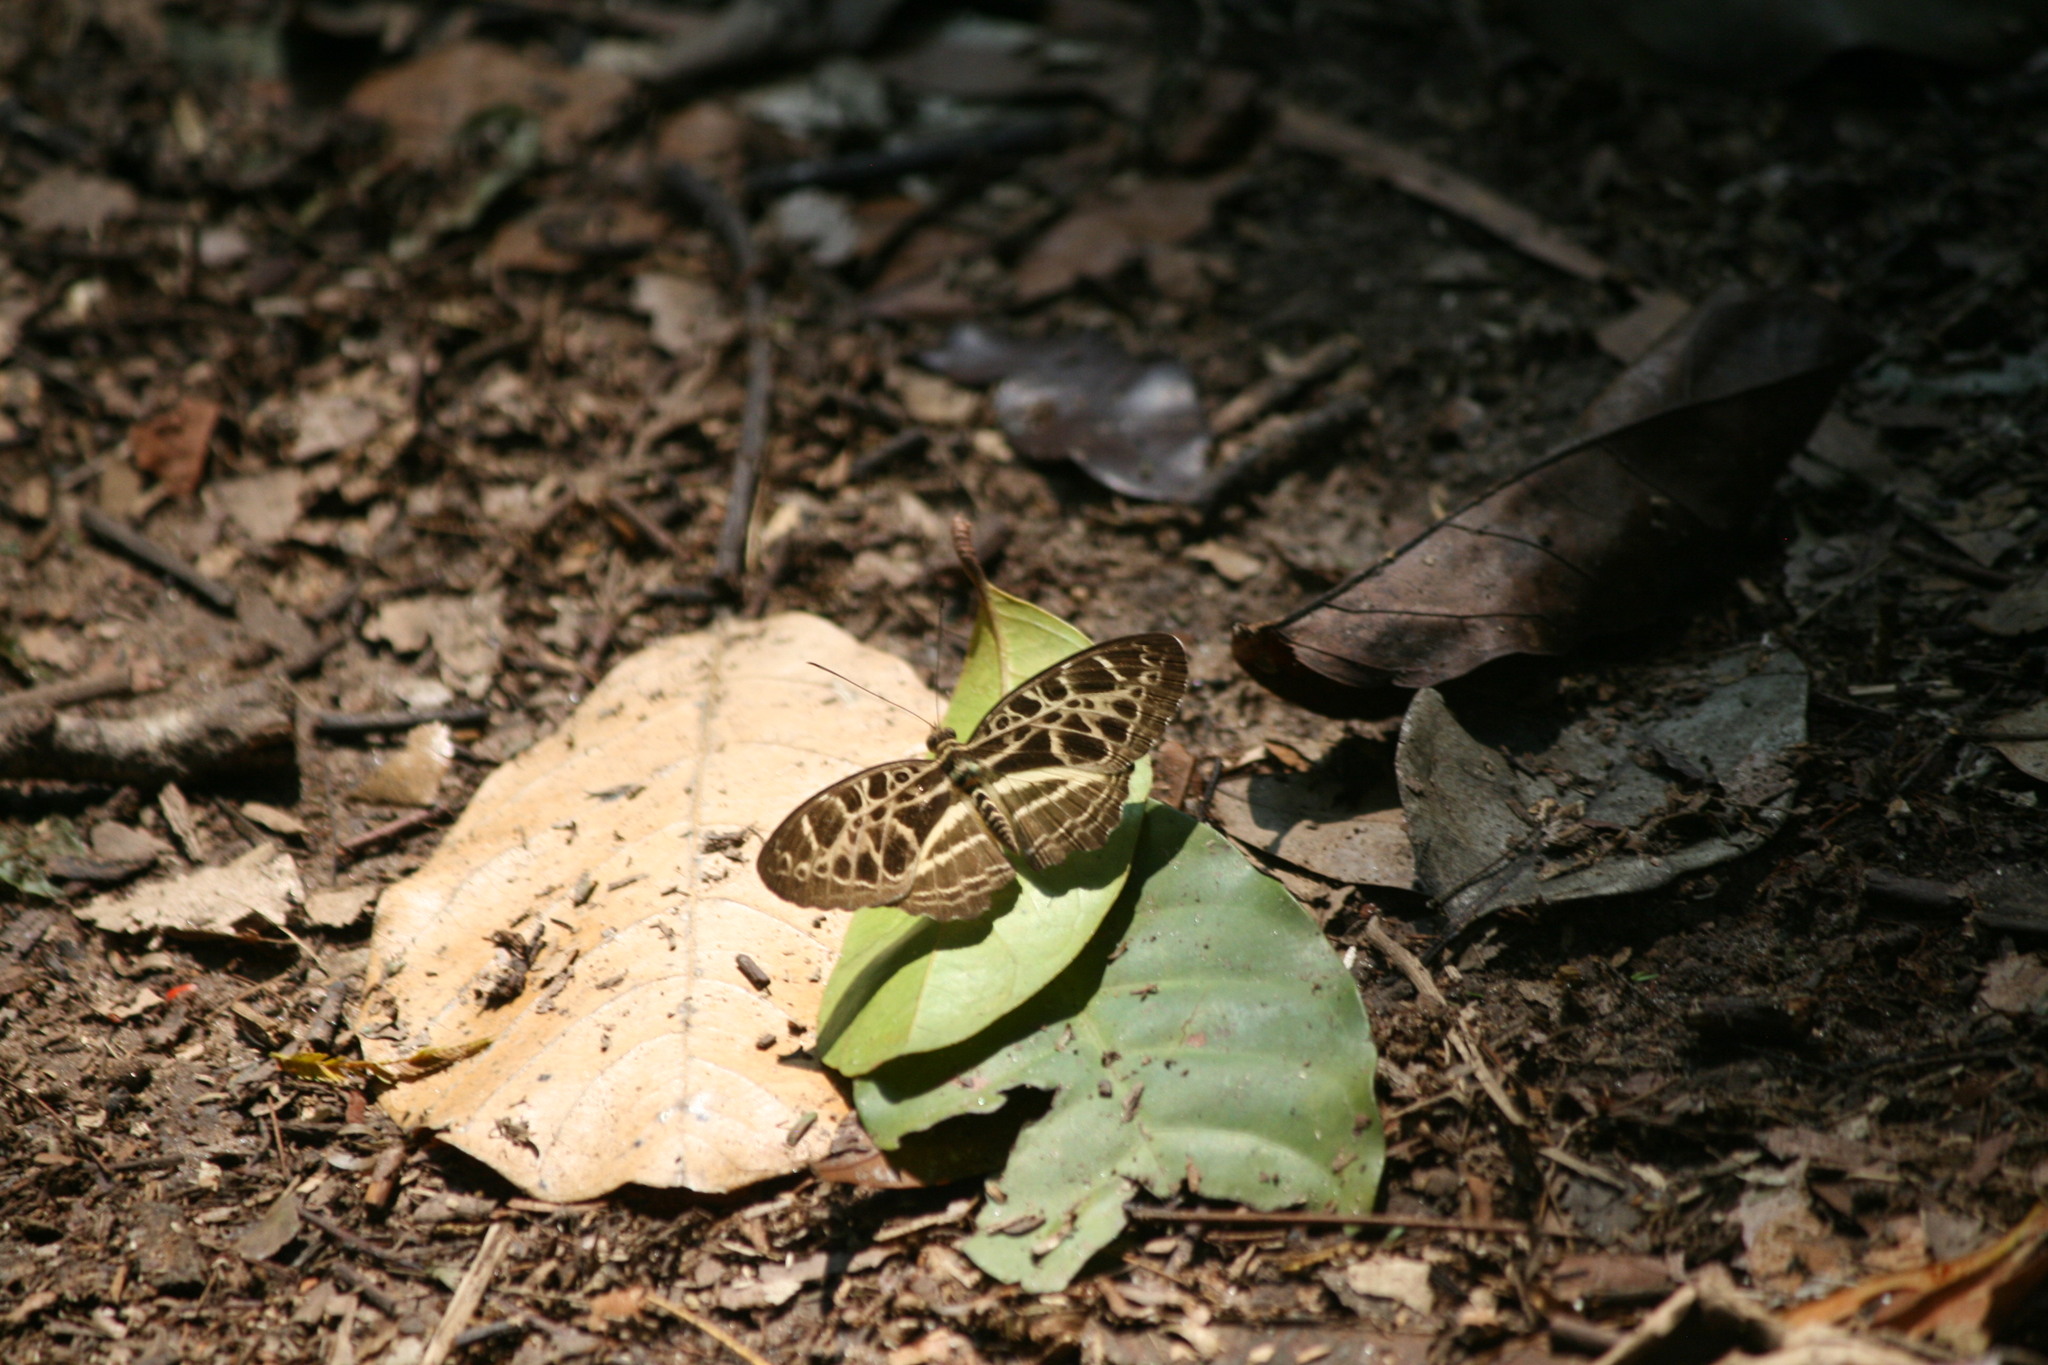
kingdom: Animalia
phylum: Arthropoda
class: Insecta
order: Lepidoptera
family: Nymphalidae
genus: Catuna
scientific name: Catuna
